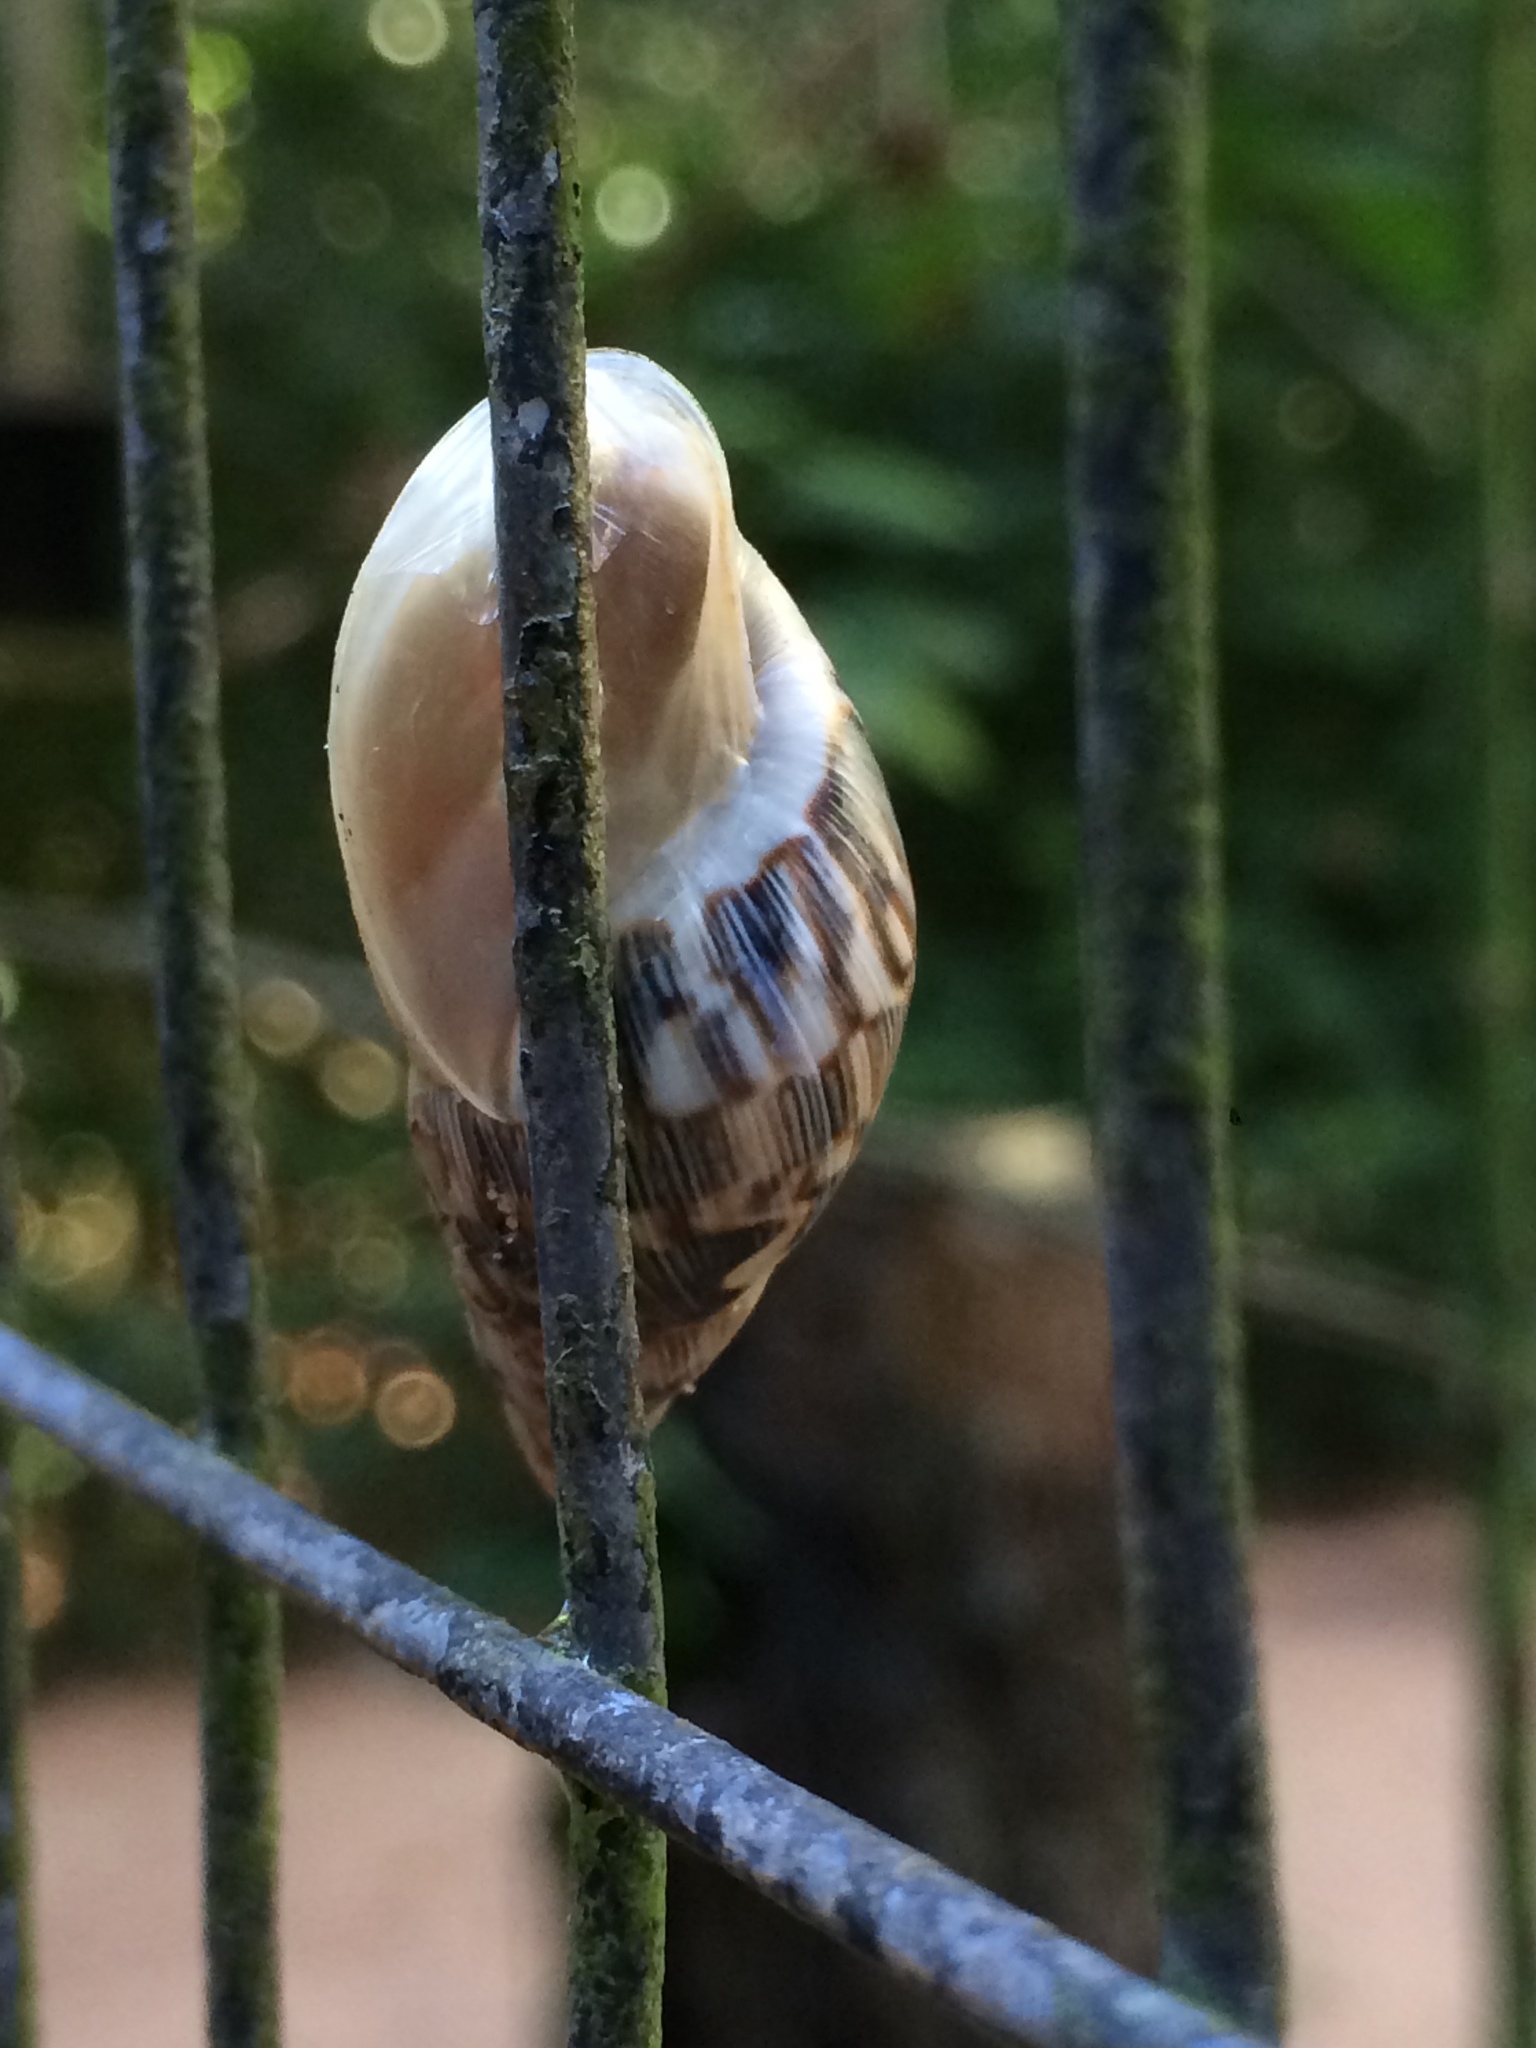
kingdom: Animalia
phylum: Mollusca
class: Gastropoda
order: Stylommatophora
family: Bulimulidae
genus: Drymaeus
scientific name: Drymaeus papyraceus
